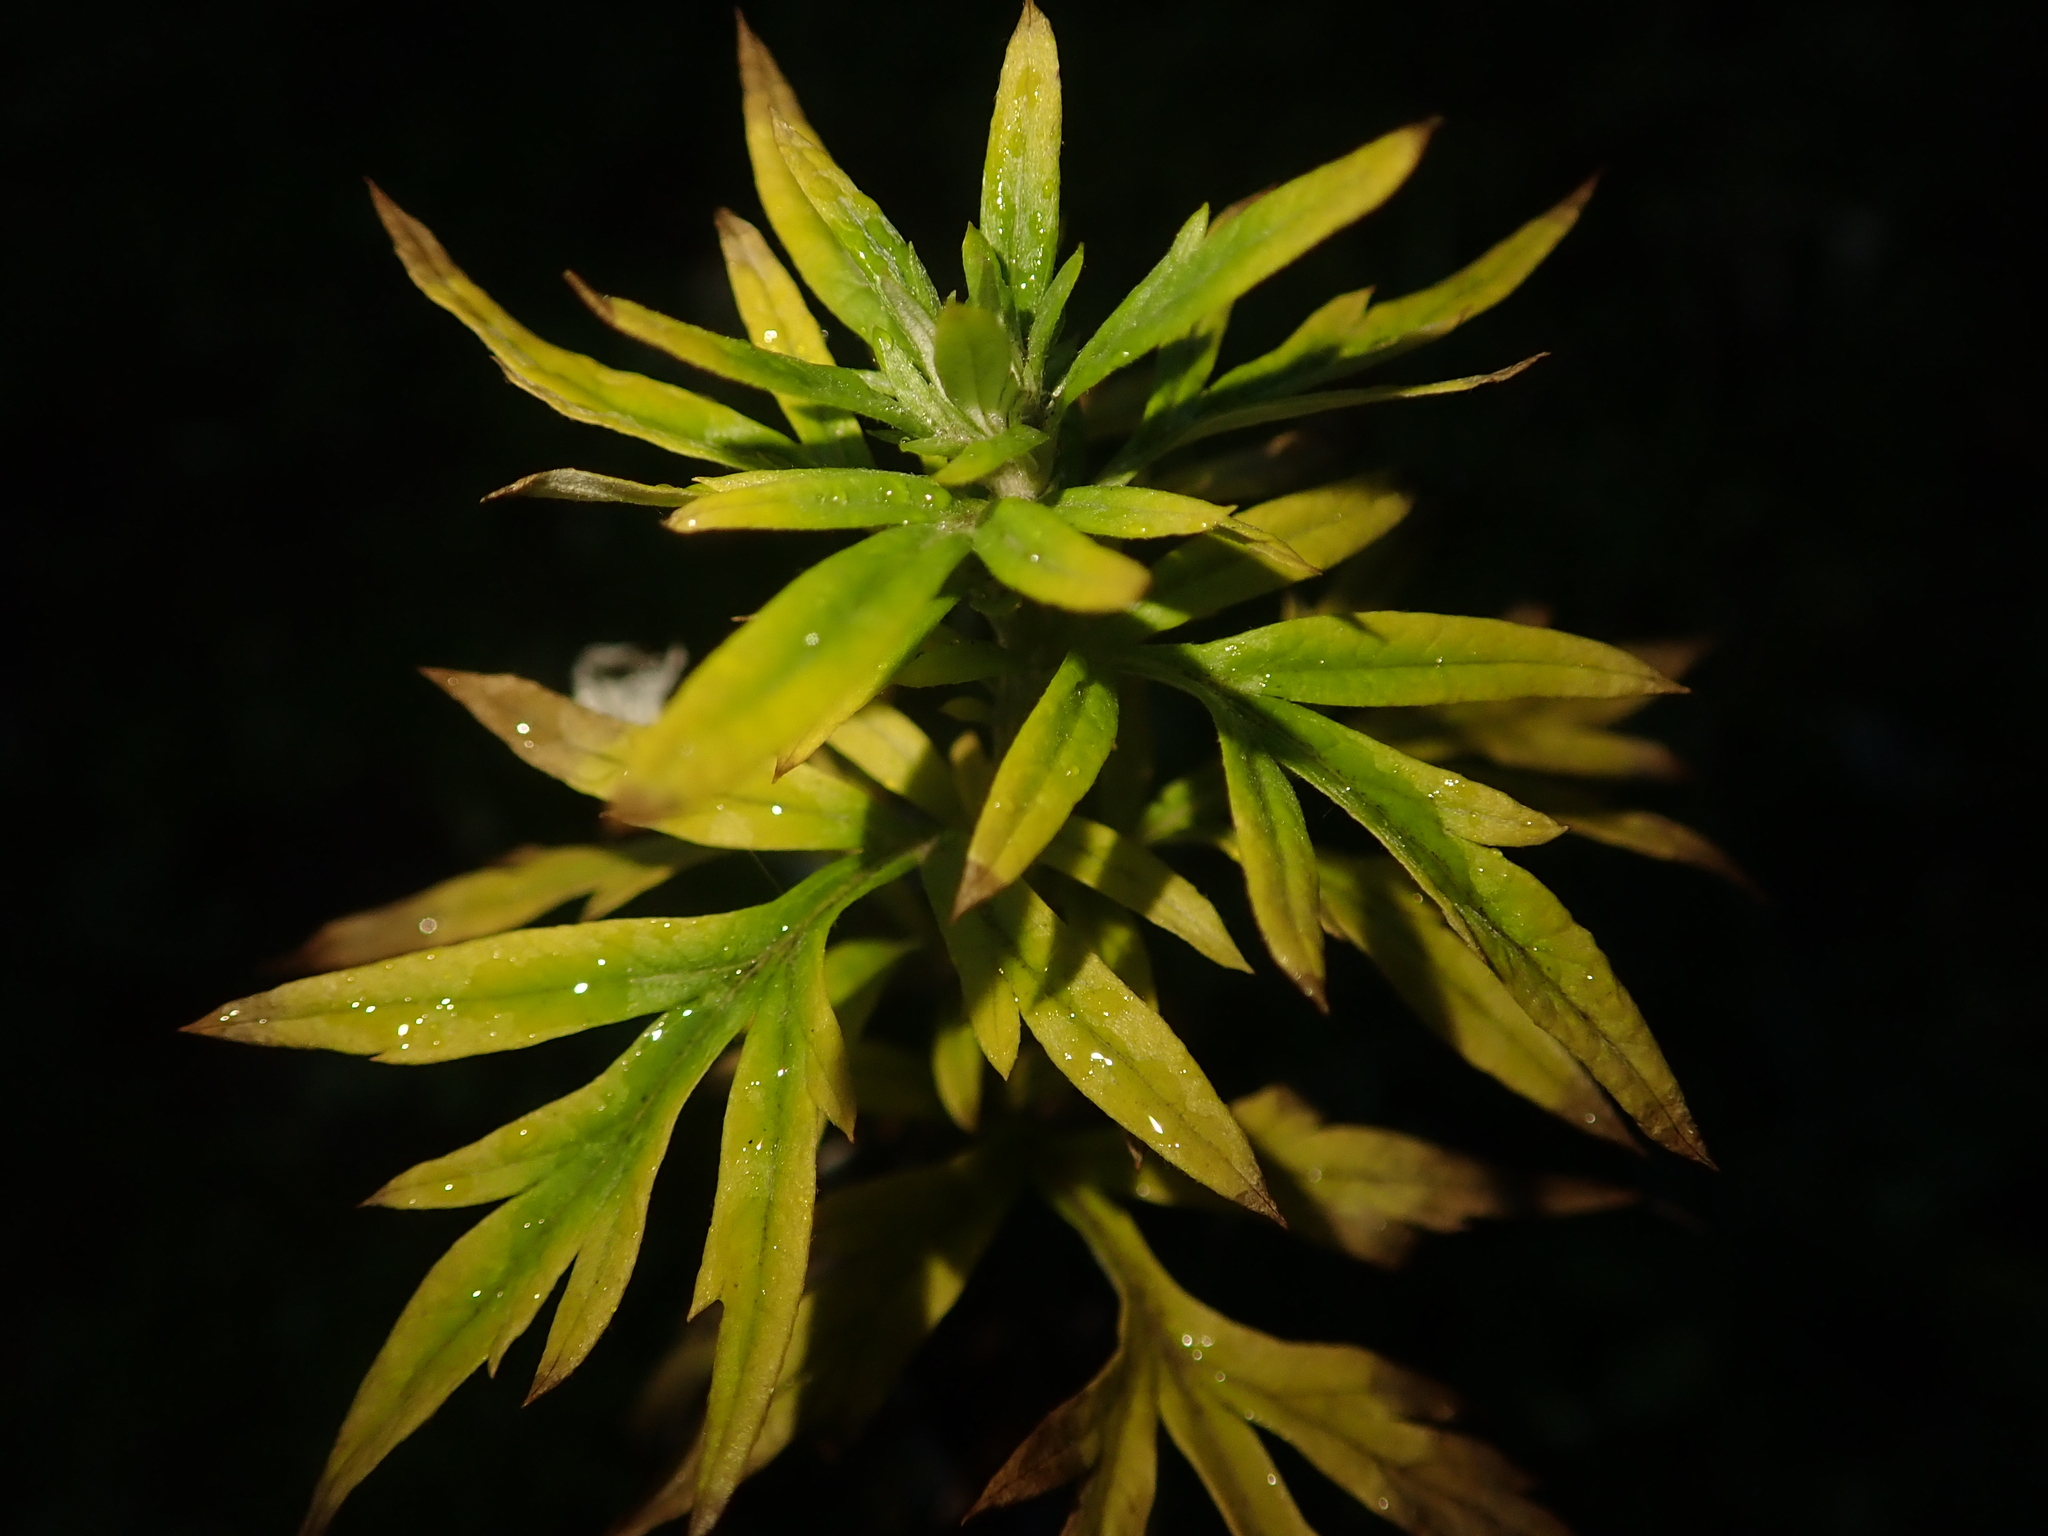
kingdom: Plantae
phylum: Tracheophyta
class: Magnoliopsida
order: Asterales
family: Asteraceae
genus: Artemisia
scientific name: Artemisia vulgaris
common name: Mugwort
